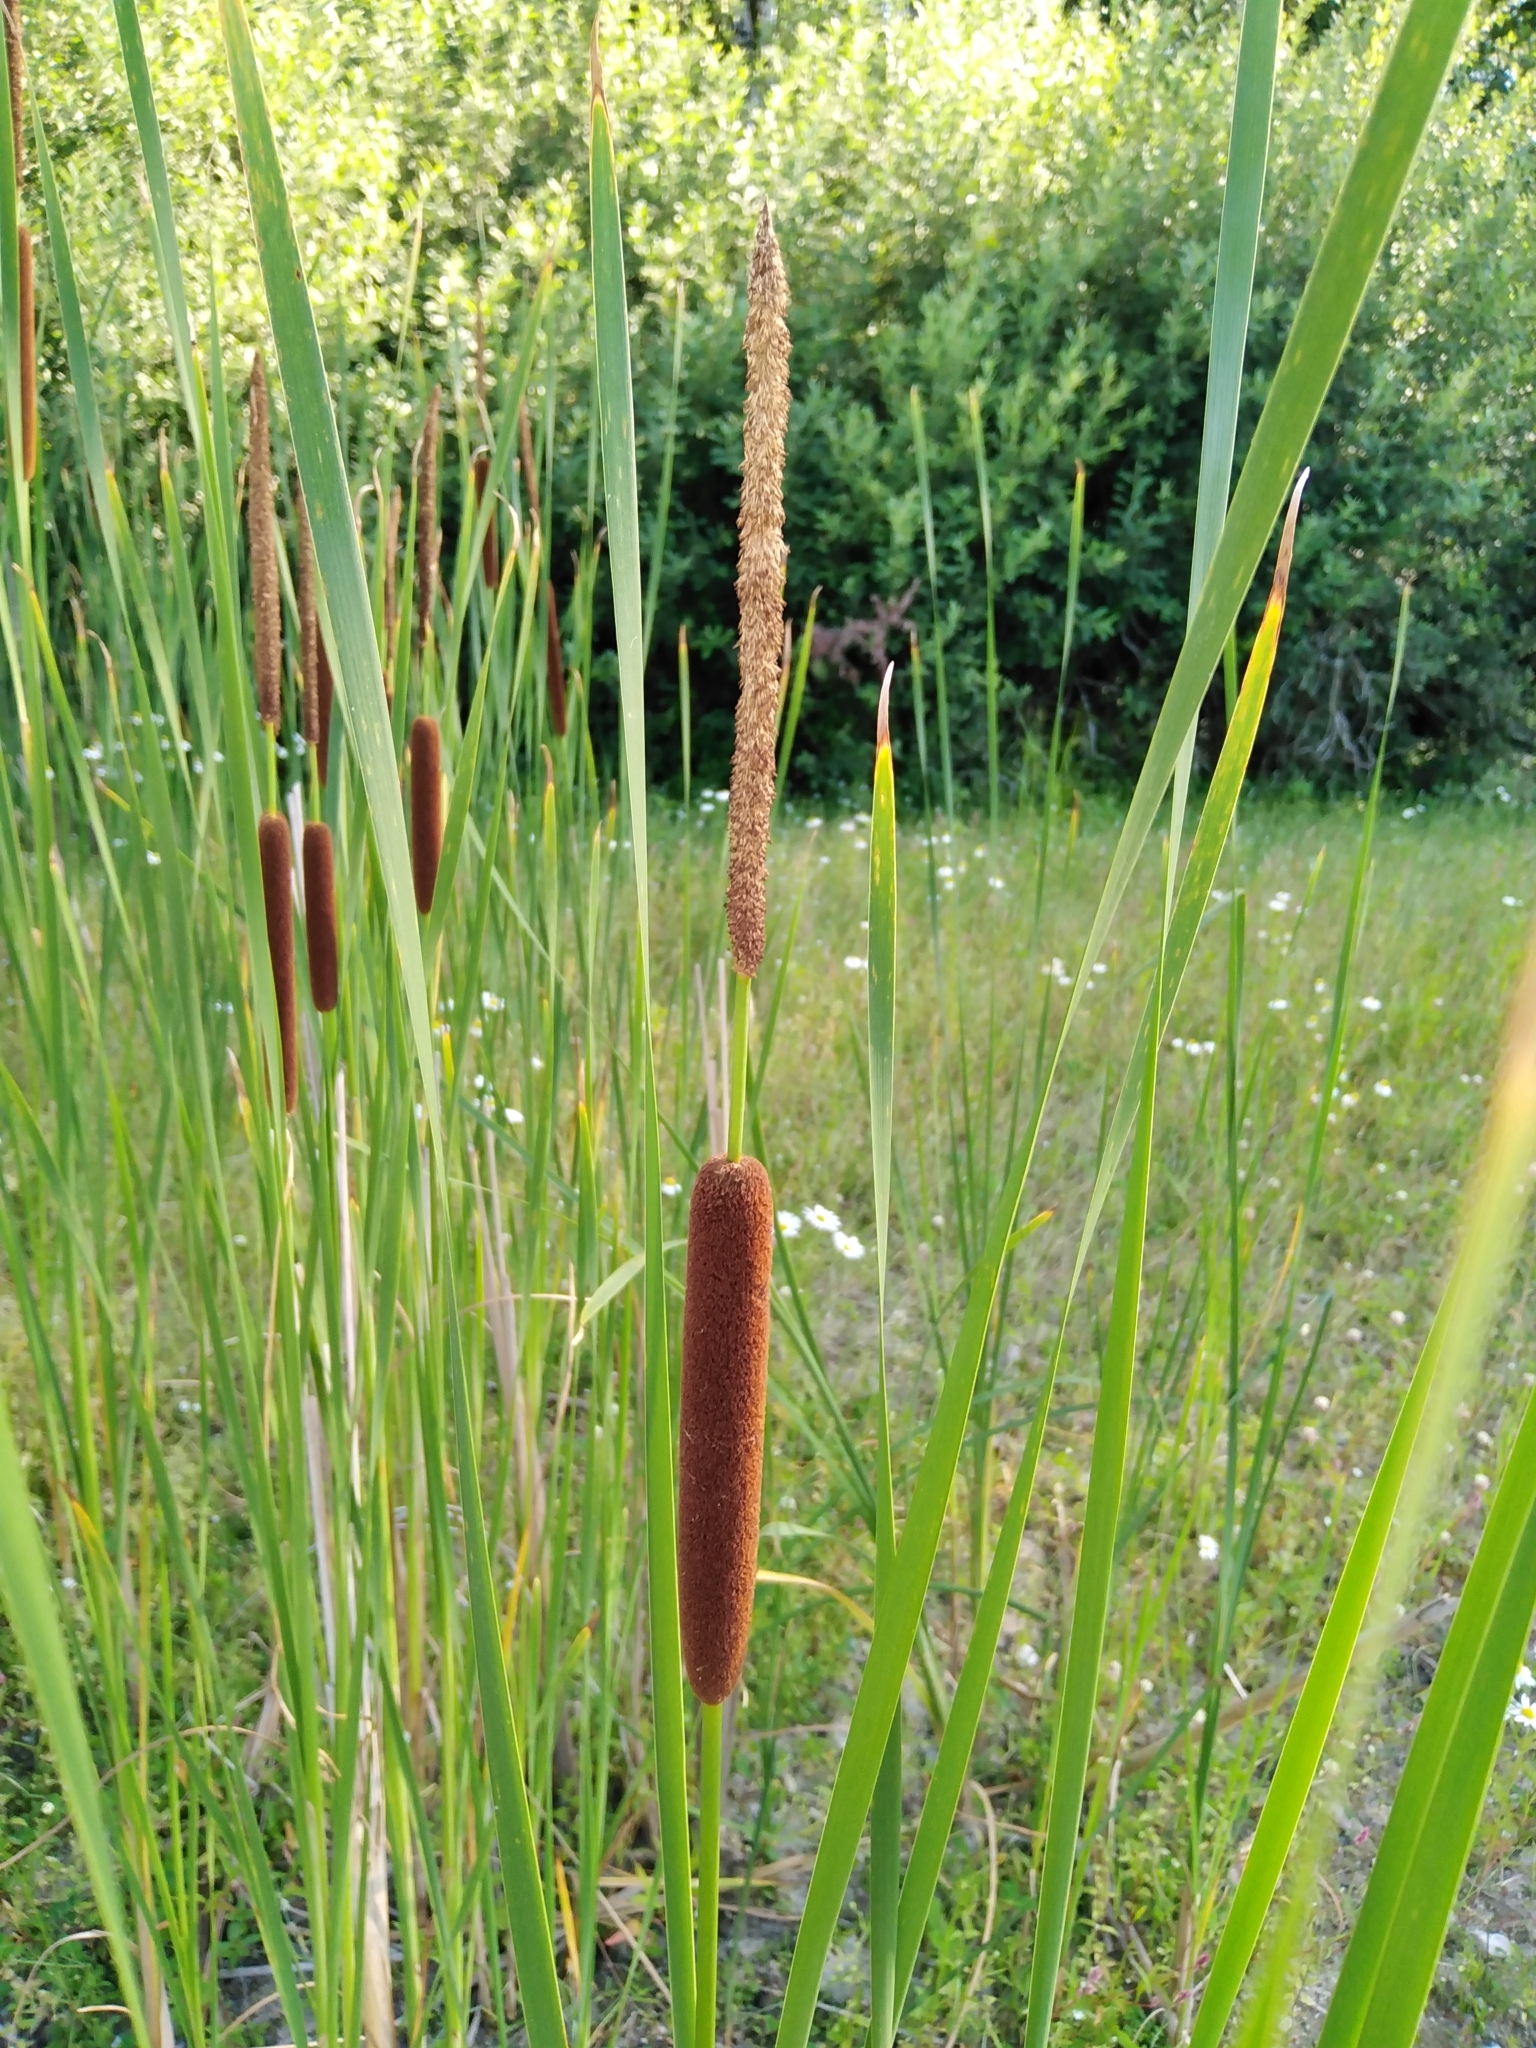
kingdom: Plantae
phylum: Tracheophyta
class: Liliopsida
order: Poales
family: Typhaceae
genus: Typha
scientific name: Typha angustifolia
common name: Lesser bulrush
